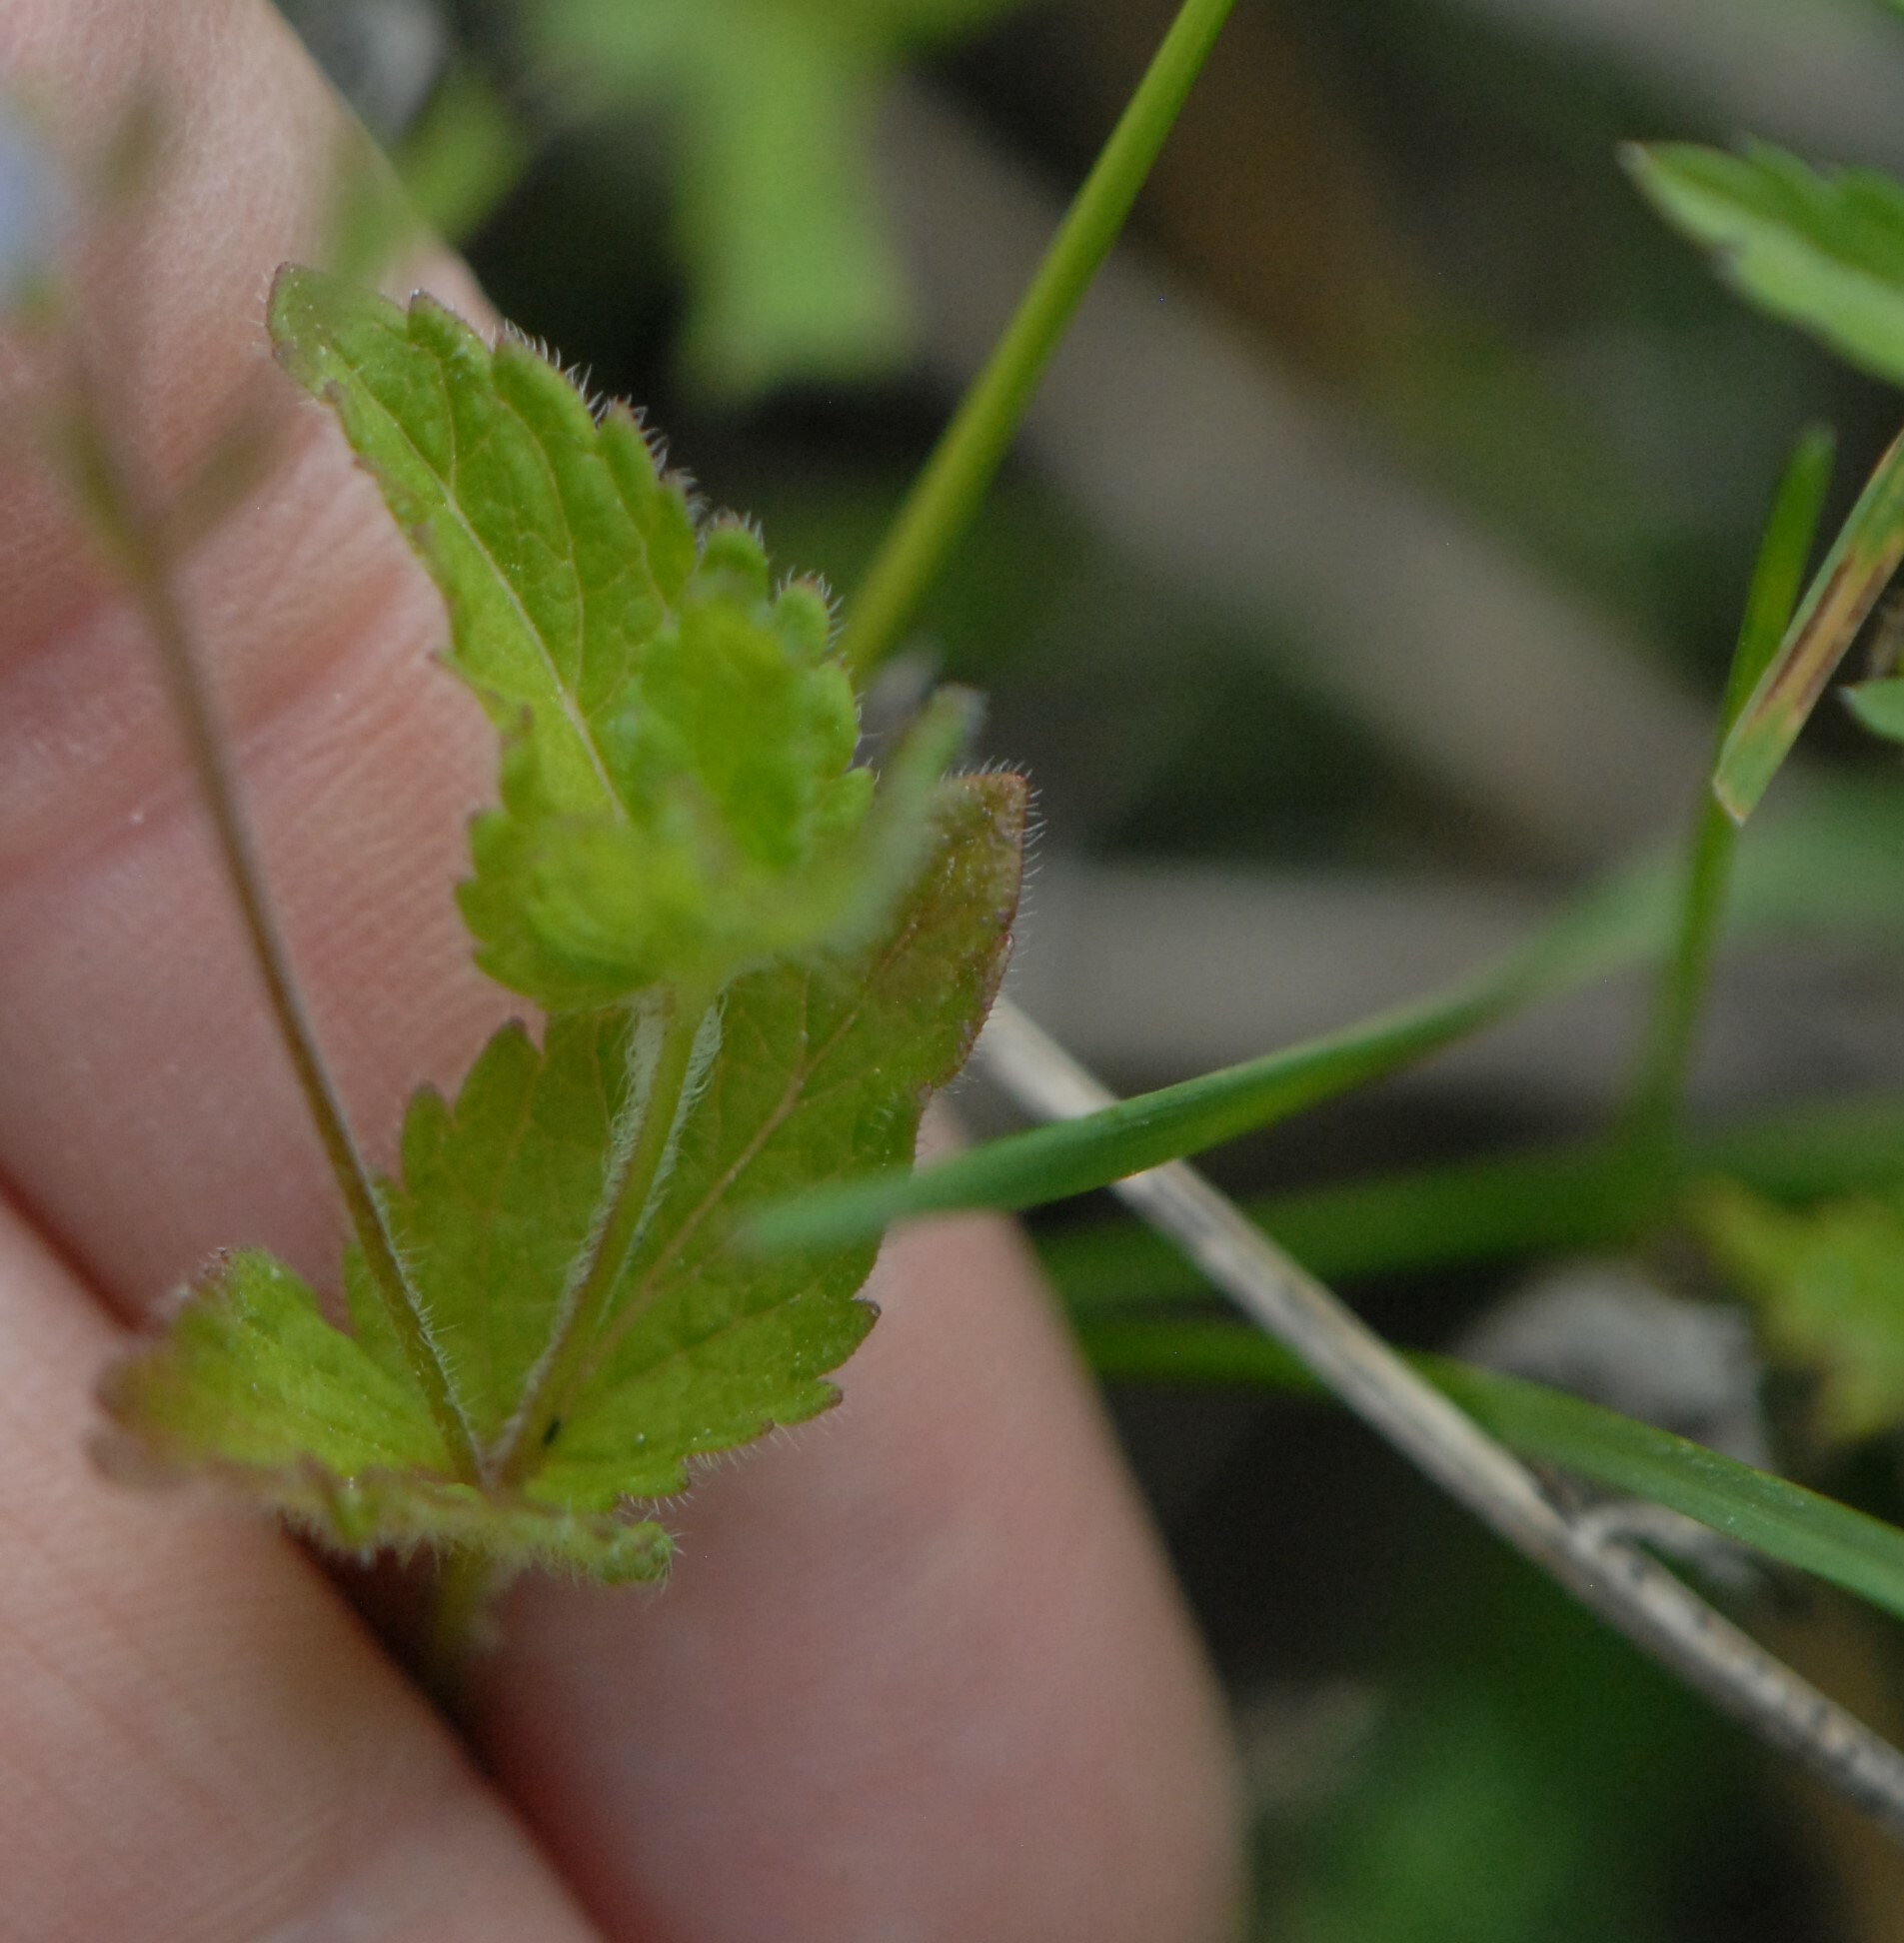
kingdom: Plantae
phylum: Tracheophyta
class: Magnoliopsida
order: Lamiales
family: Plantaginaceae
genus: Veronica
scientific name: Veronica chamaedrys
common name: Germander speedwell
